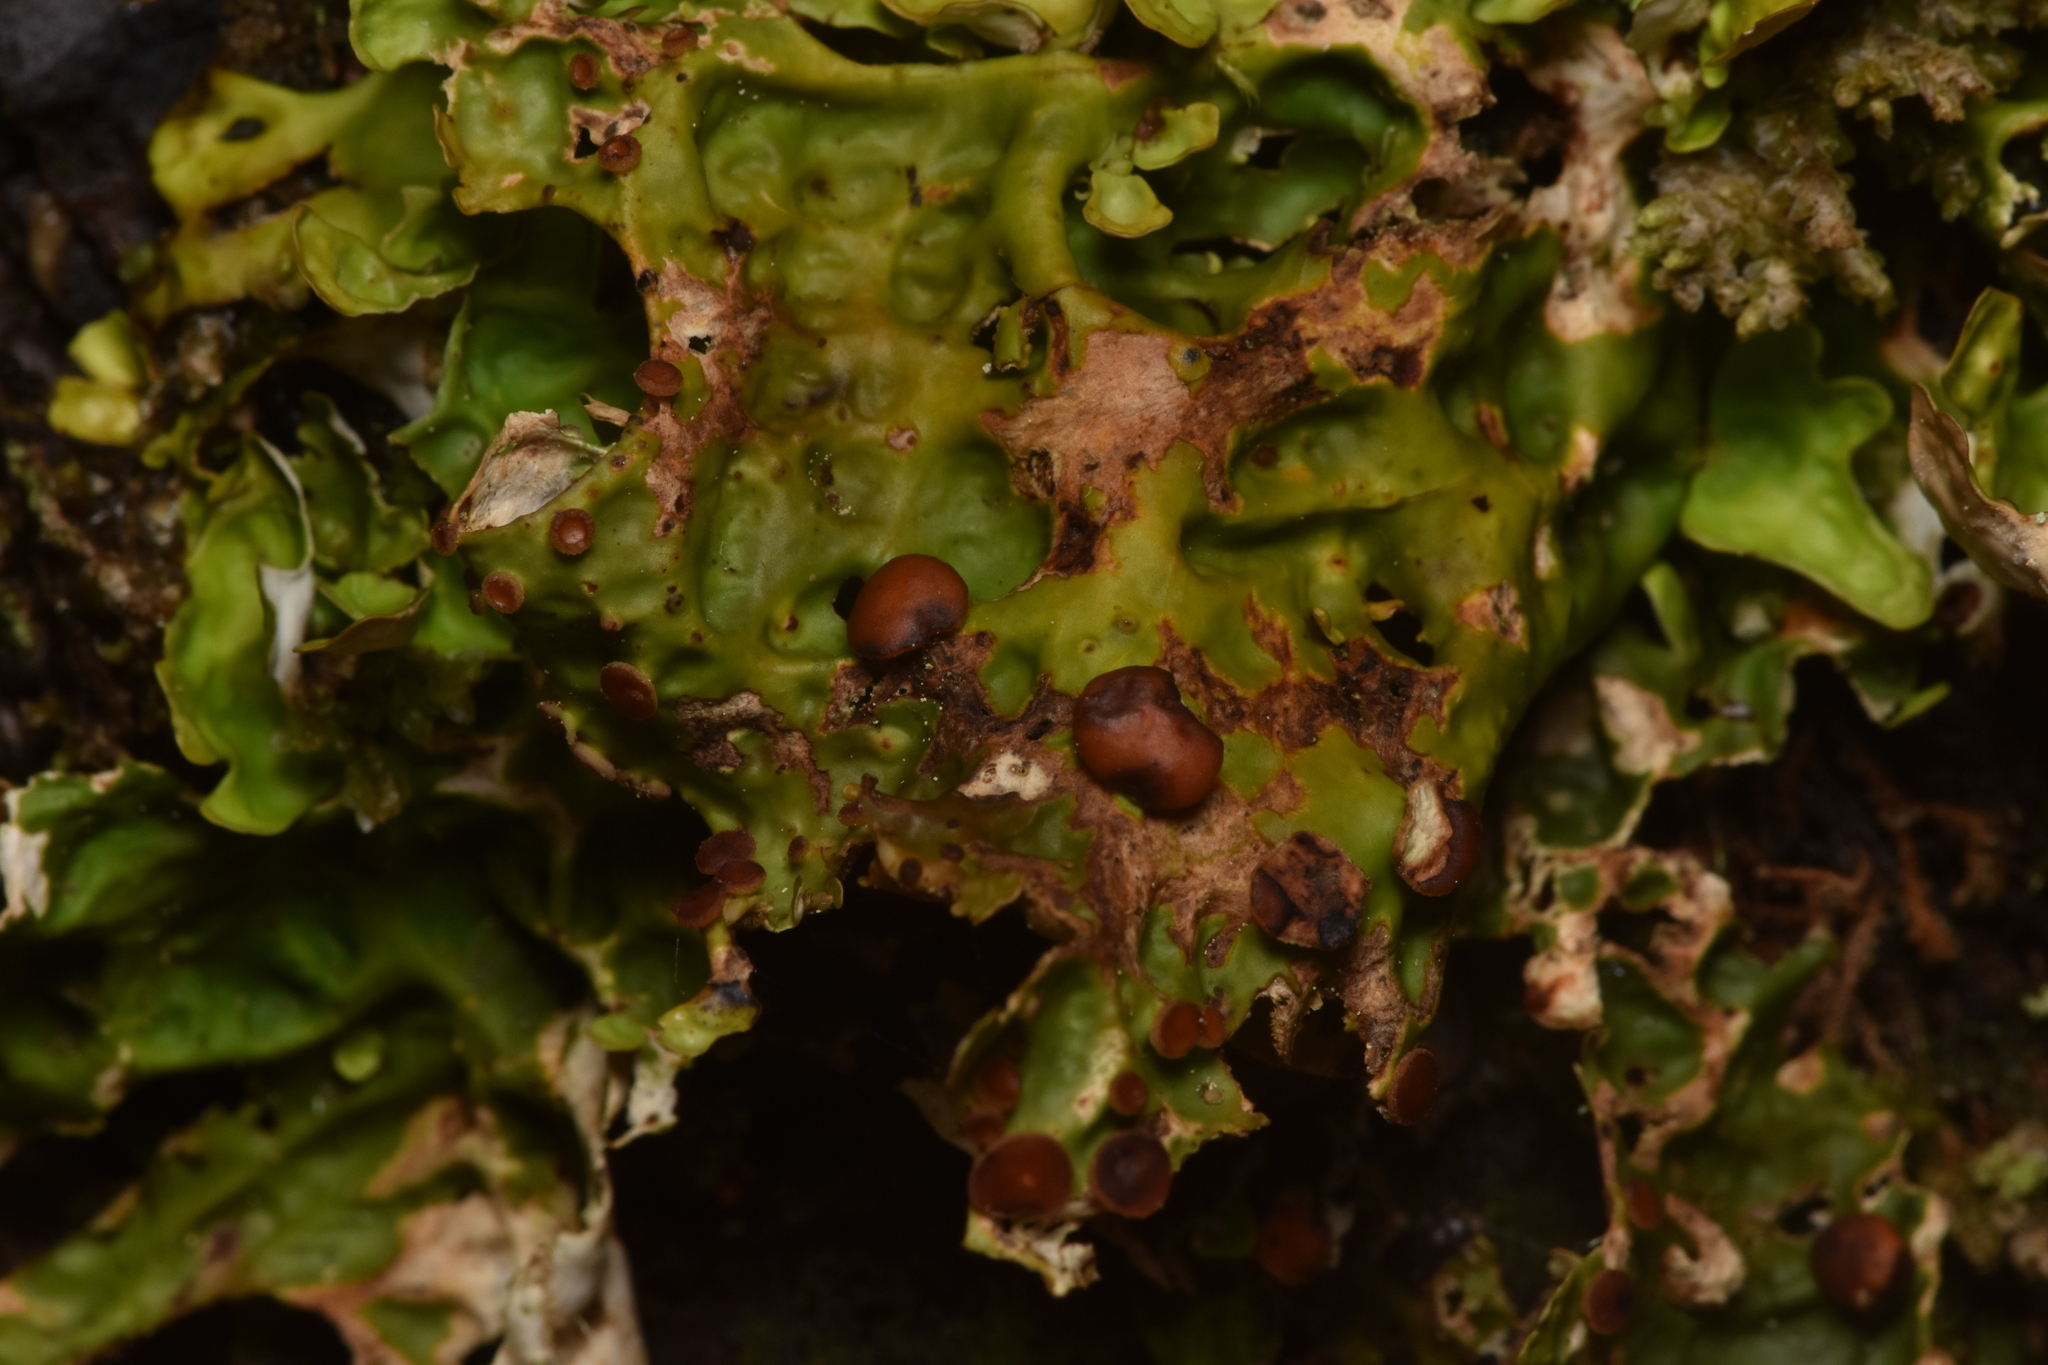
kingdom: Fungi
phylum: Ascomycota
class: Lecanoromycetes
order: Peltigerales
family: Lobariaceae
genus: Lobaria
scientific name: Lobaria linita
